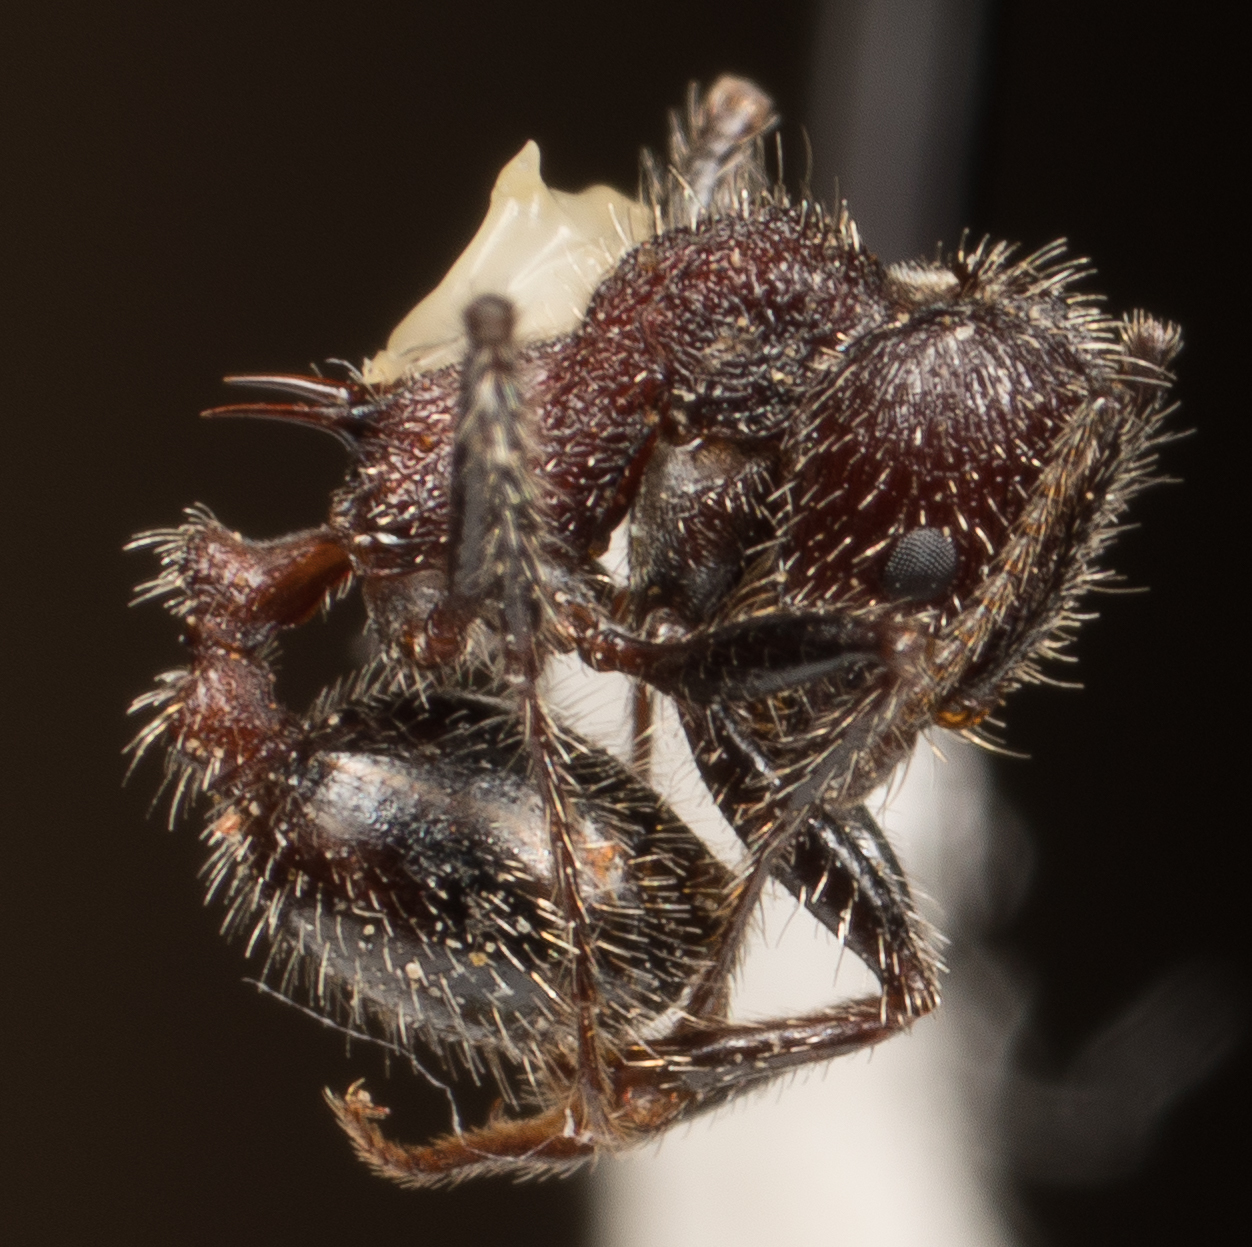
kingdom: Animalia
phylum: Arthropoda
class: Insecta
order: Hymenoptera
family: Formicidae
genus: Veromessor
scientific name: Veromessor andrei
